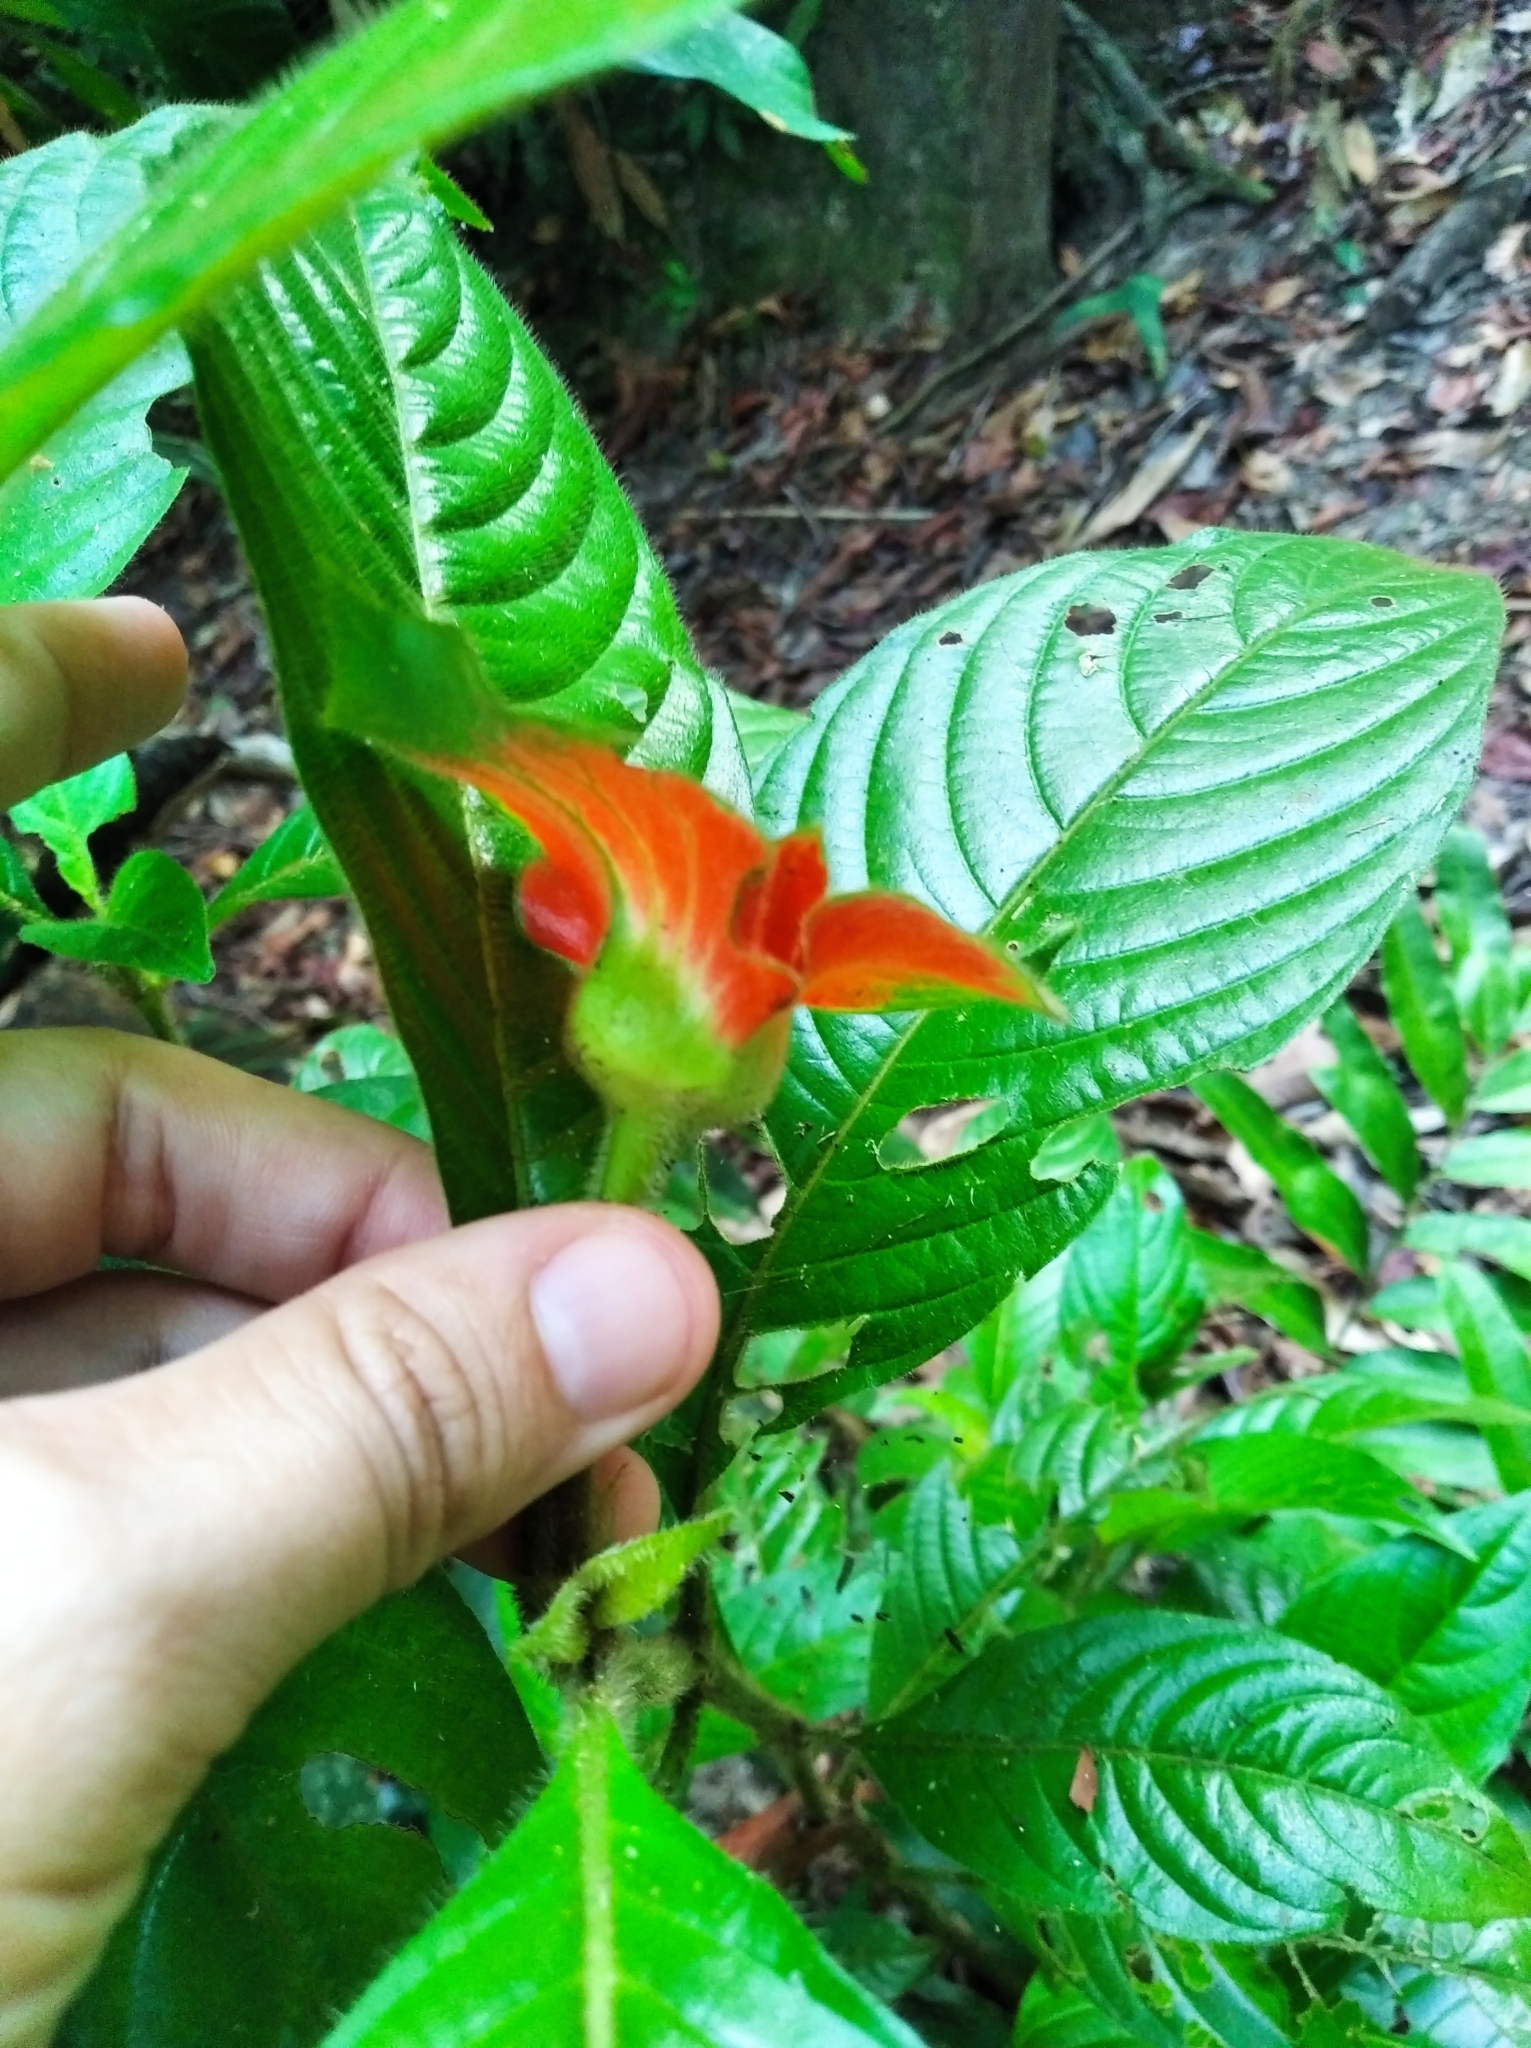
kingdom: Plantae
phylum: Tracheophyta
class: Magnoliopsida
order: Gentianales
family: Rubiaceae
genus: Palicourea
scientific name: Palicourea tomentosa
